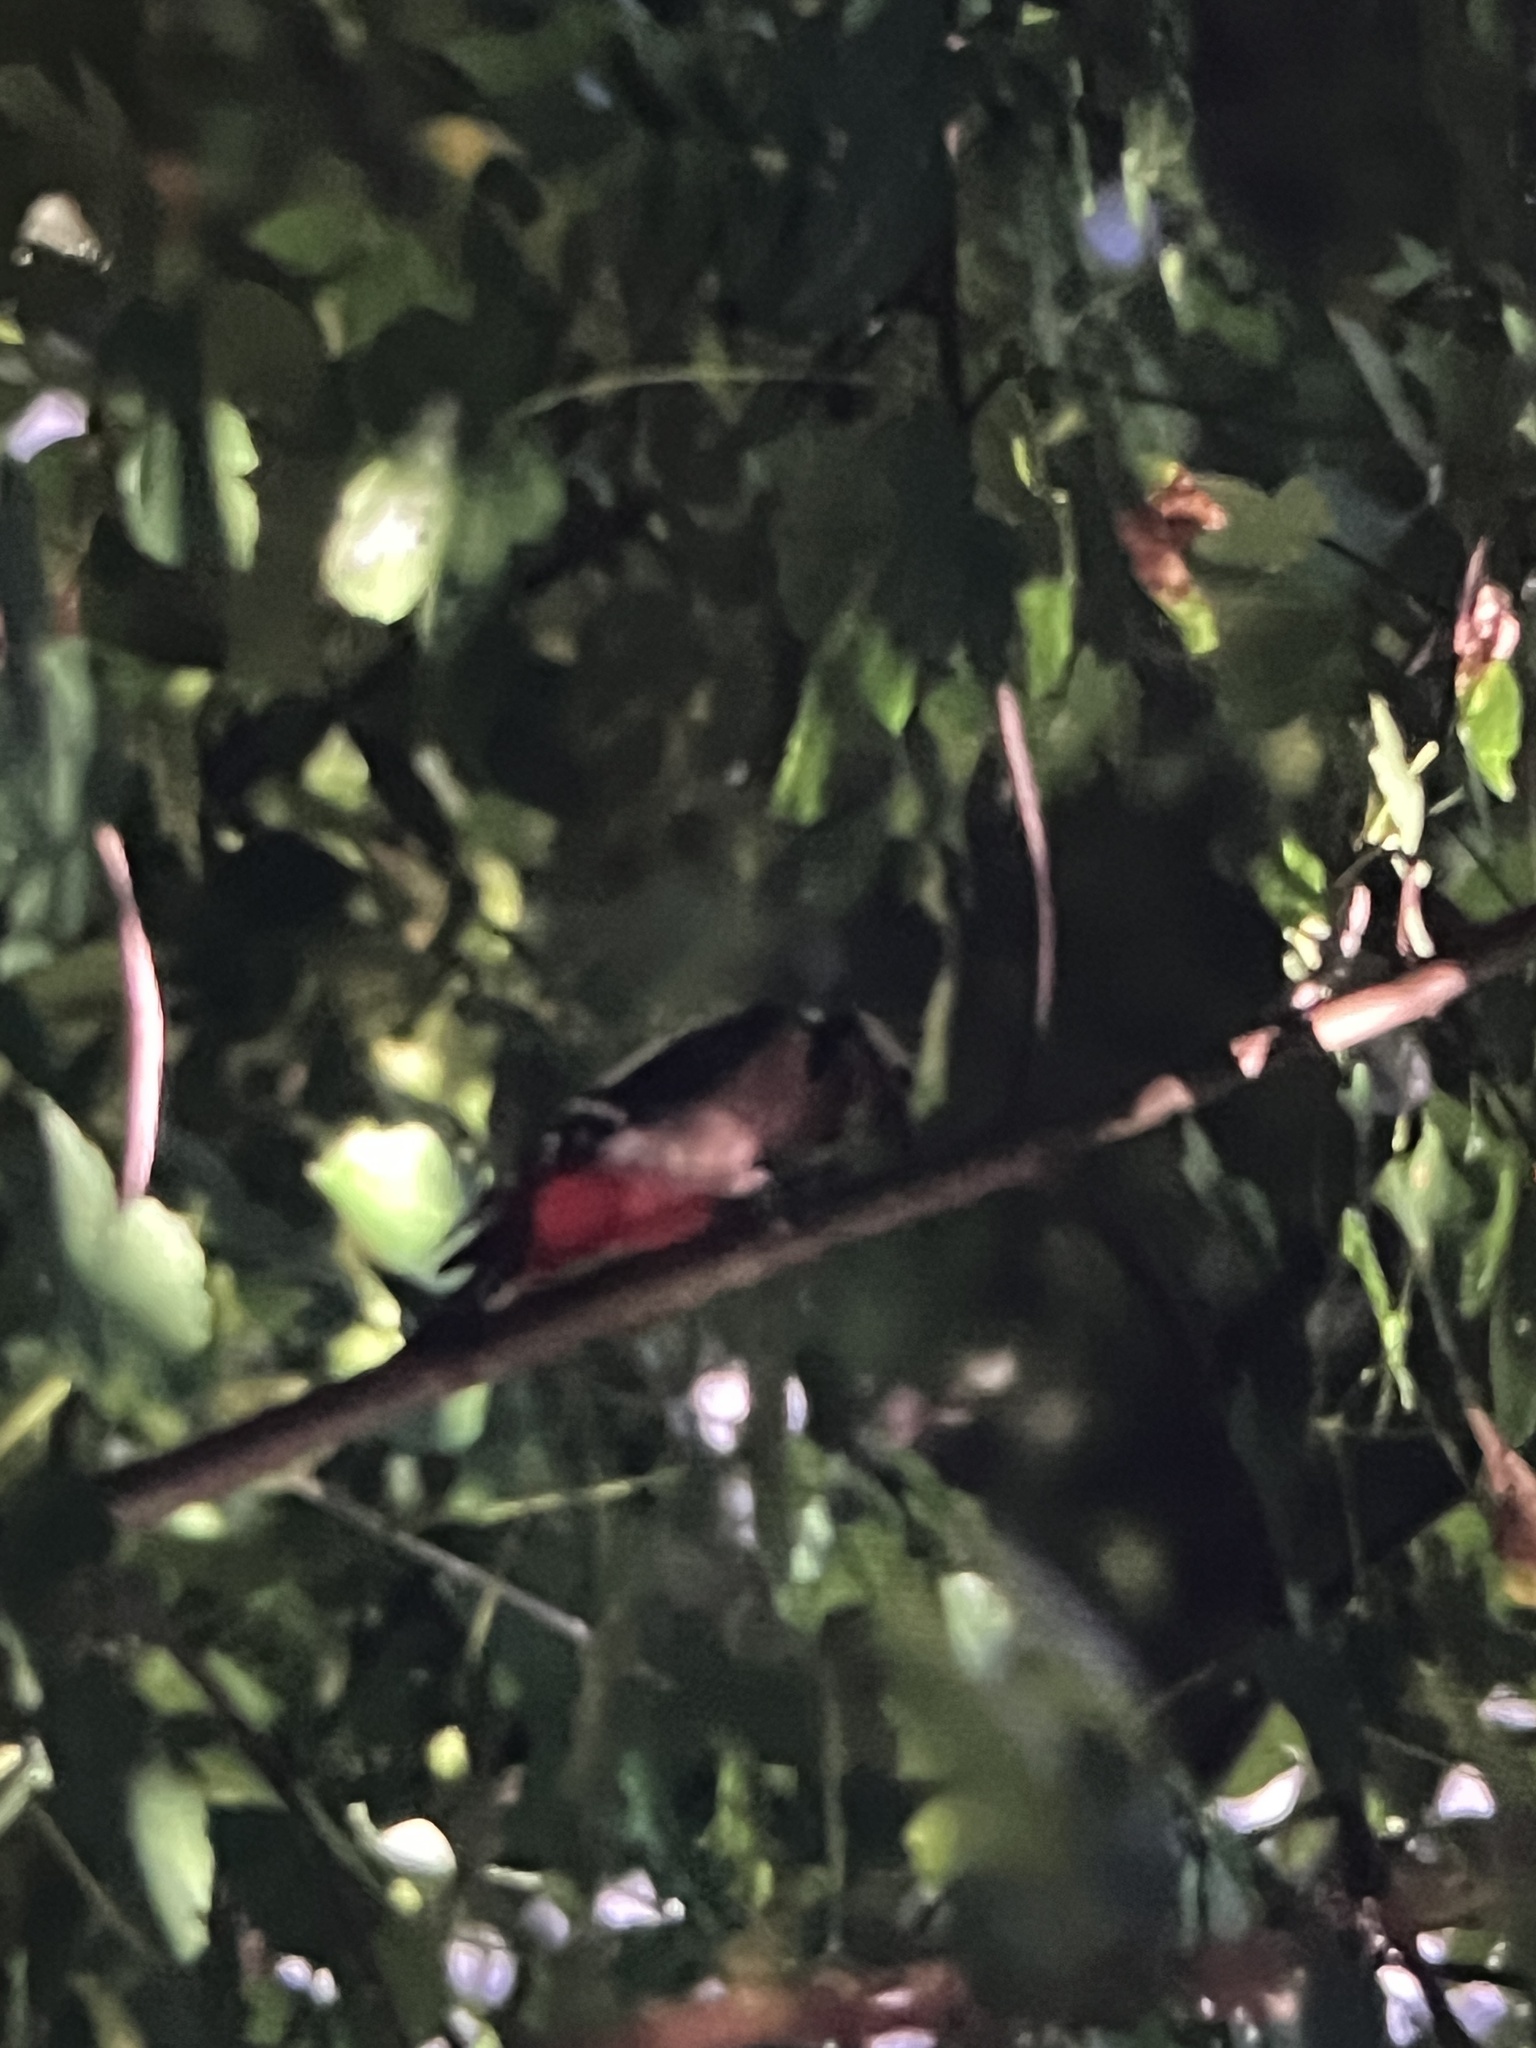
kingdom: Animalia
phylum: Chordata
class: Aves
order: Piciformes
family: Picidae
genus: Dendrocopos
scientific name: Dendrocopos major
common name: Great spotted woodpecker
